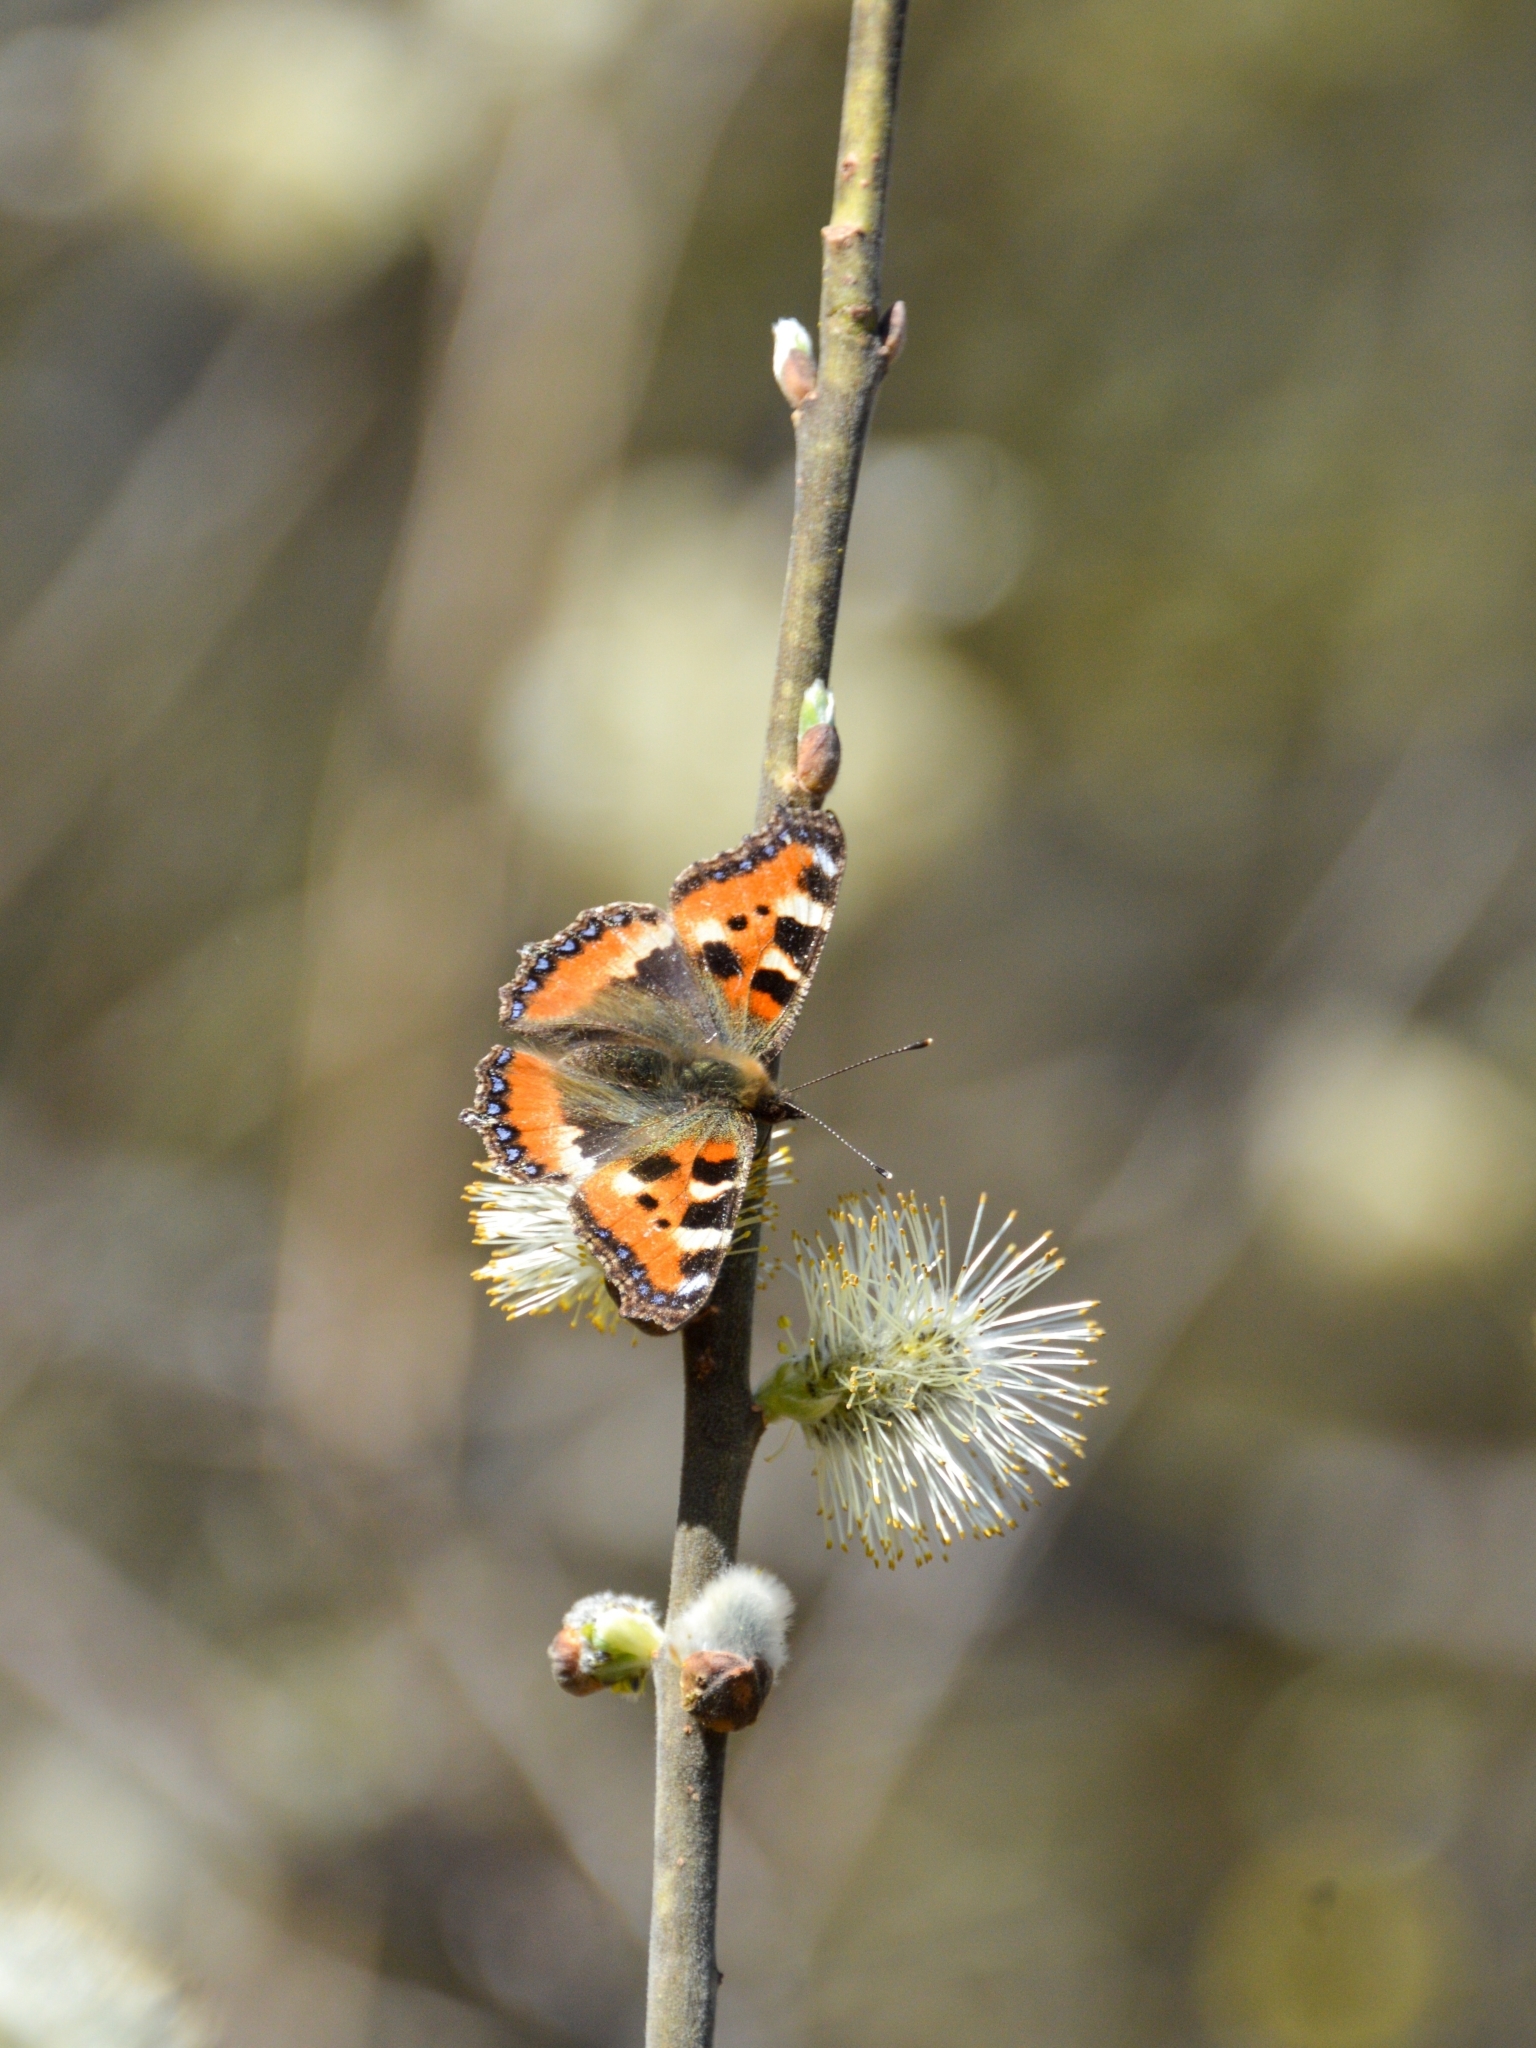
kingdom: Animalia
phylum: Arthropoda
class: Insecta
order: Lepidoptera
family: Nymphalidae
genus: Aglais
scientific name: Aglais urticae
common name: Small tortoiseshell
